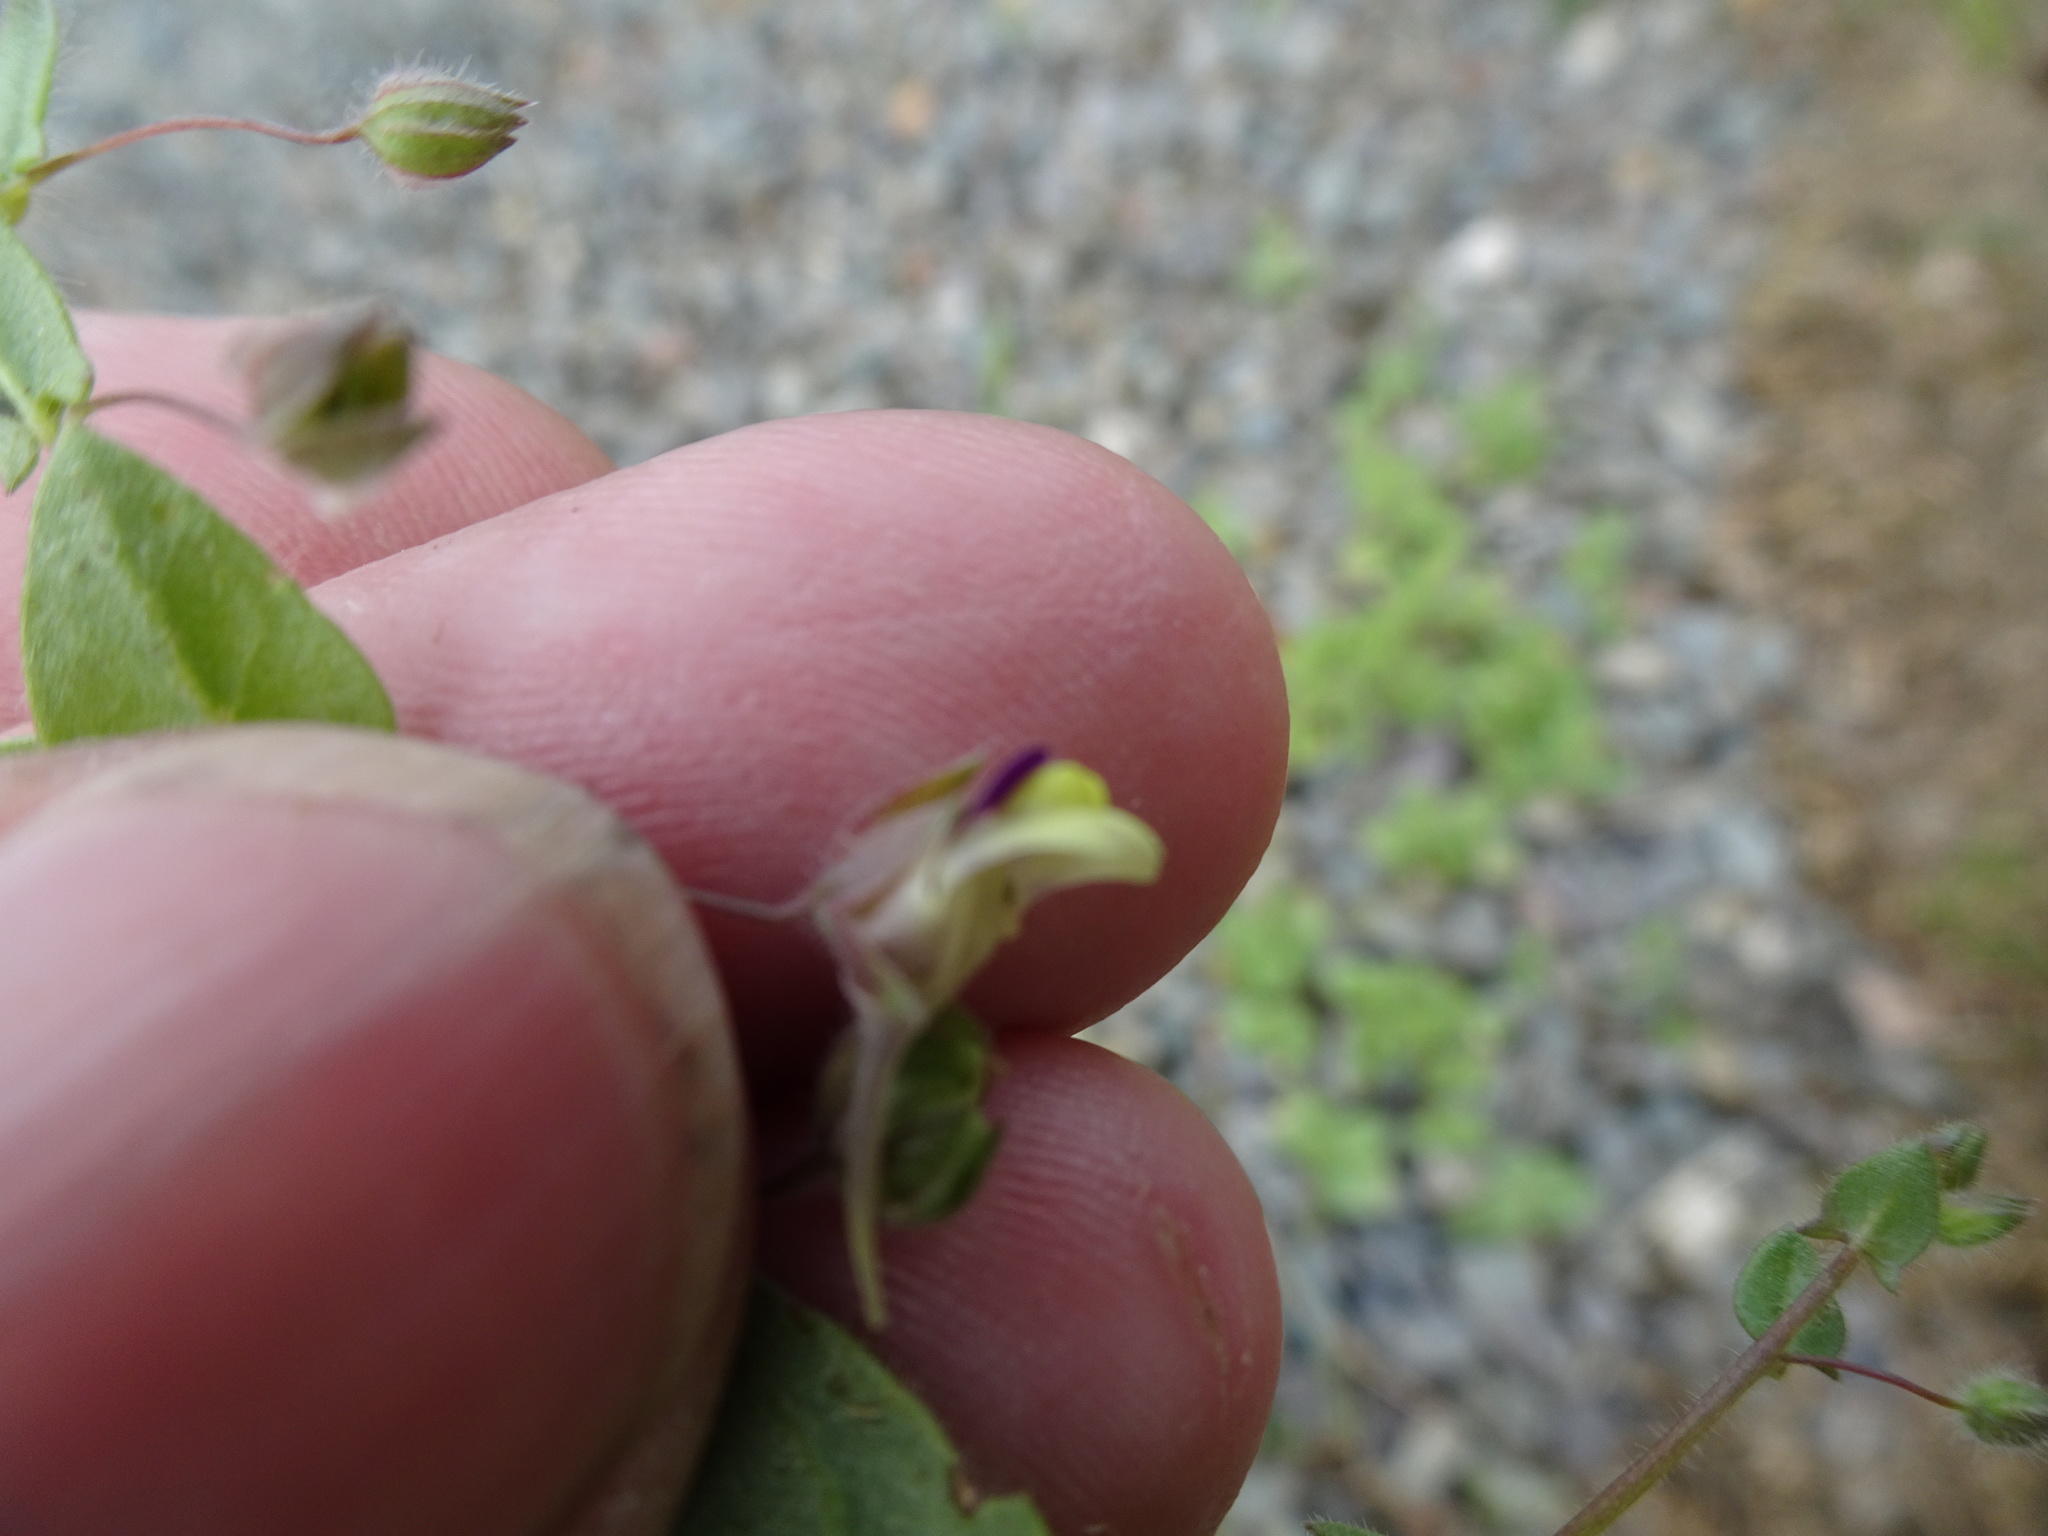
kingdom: Plantae
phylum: Tracheophyta
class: Magnoliopsida
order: Lamiales
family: Plantaginaceae
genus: Kickxia
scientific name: Kickxia elatine
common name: Sharp-leaved fluellen
